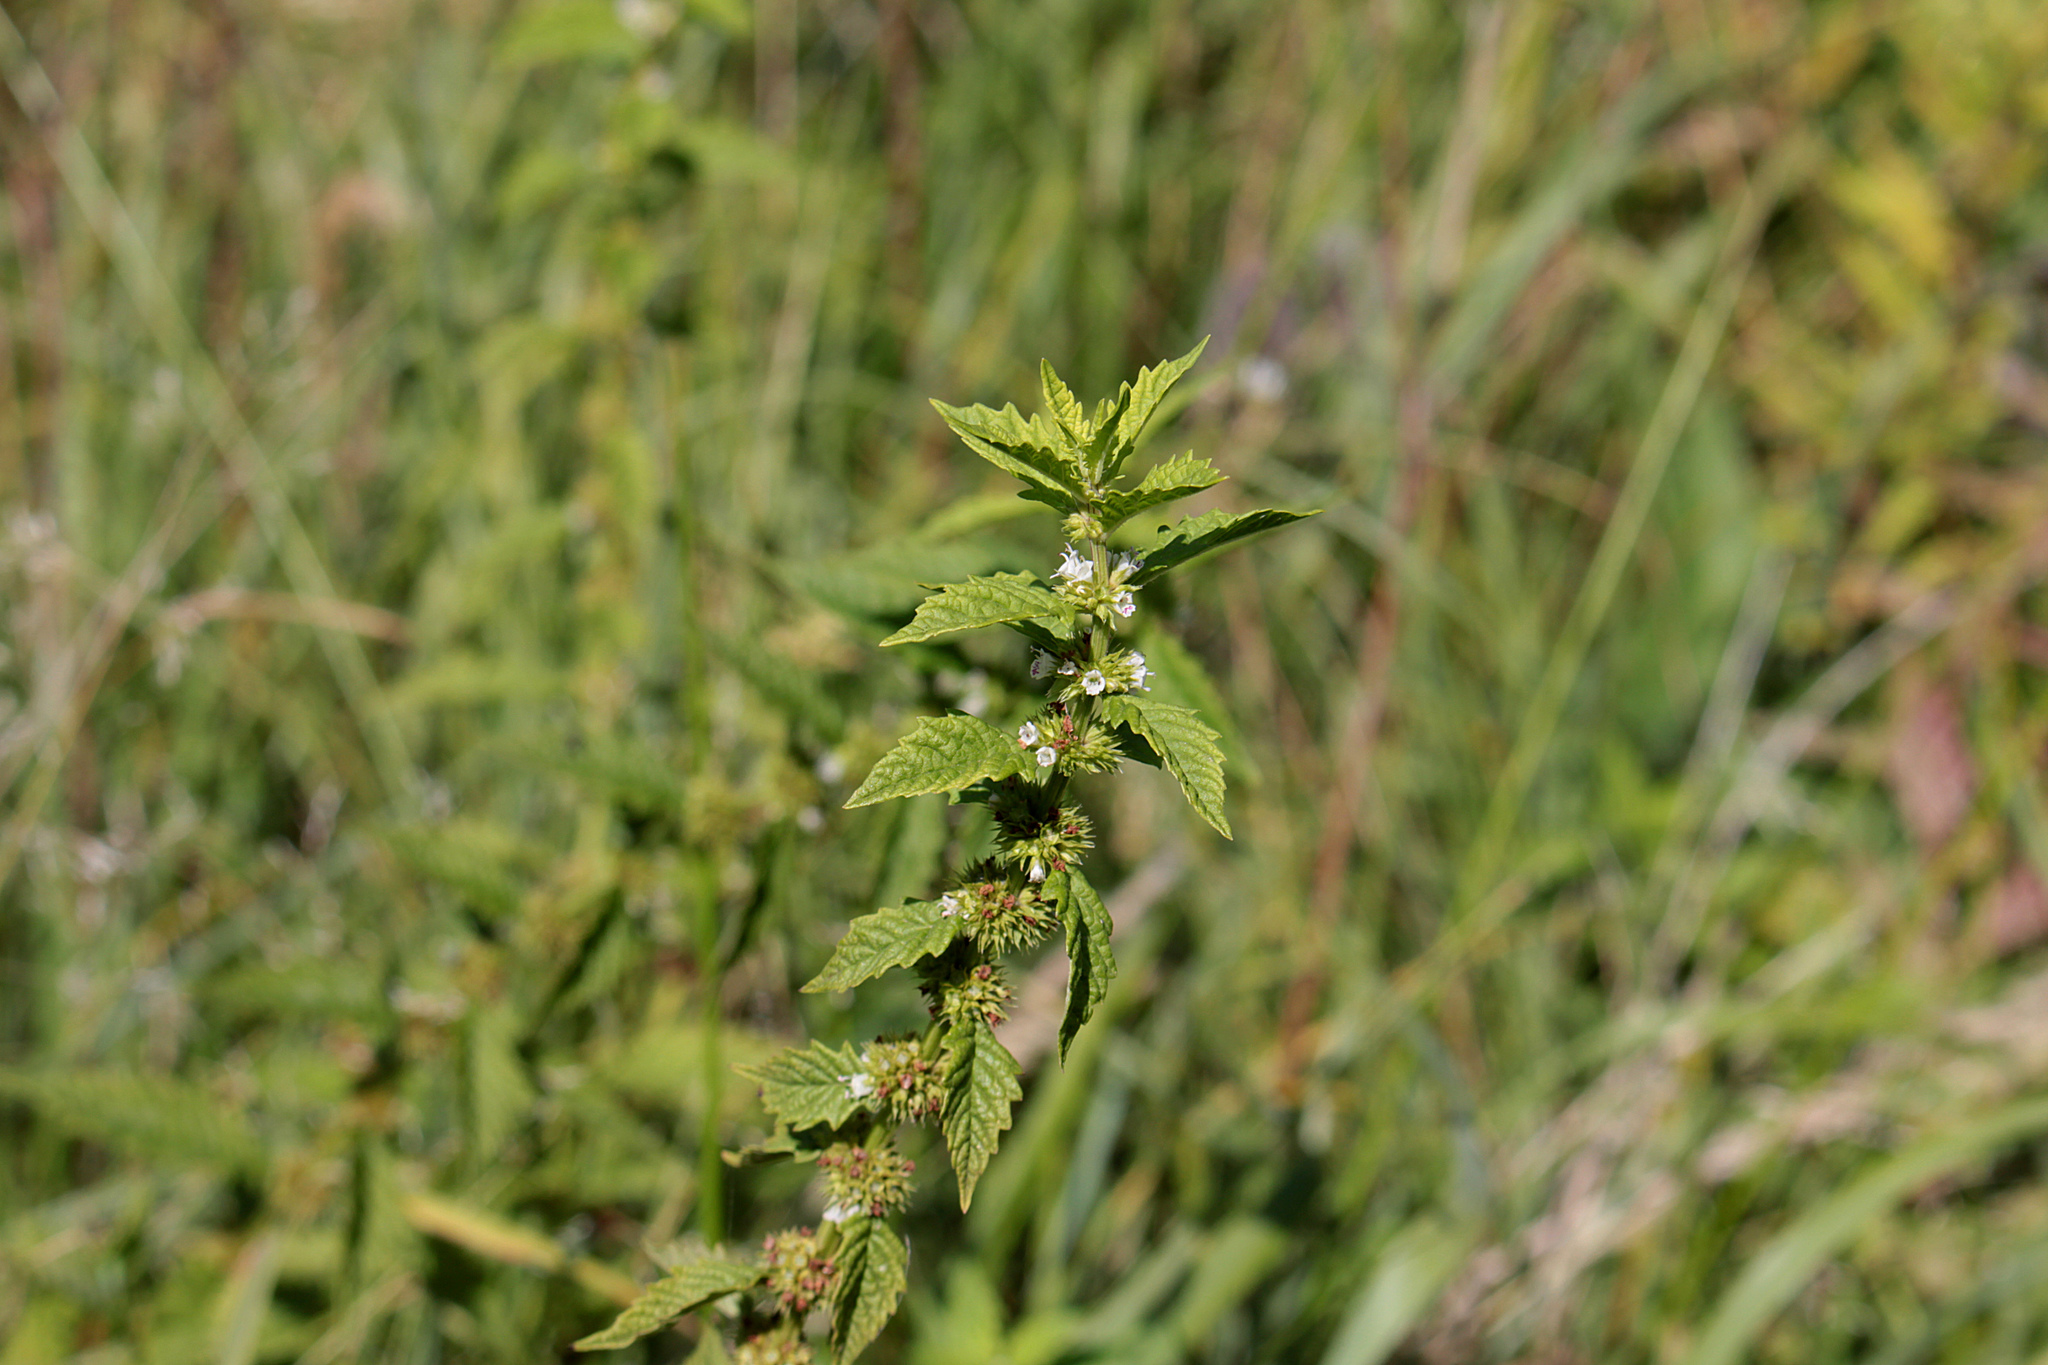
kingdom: Plantae
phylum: Tracheophyta
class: Magnoliopsida
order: Lamiales
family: Lamiaceae
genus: Lycopus
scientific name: Lycopus europaeus
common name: European bugleweed
